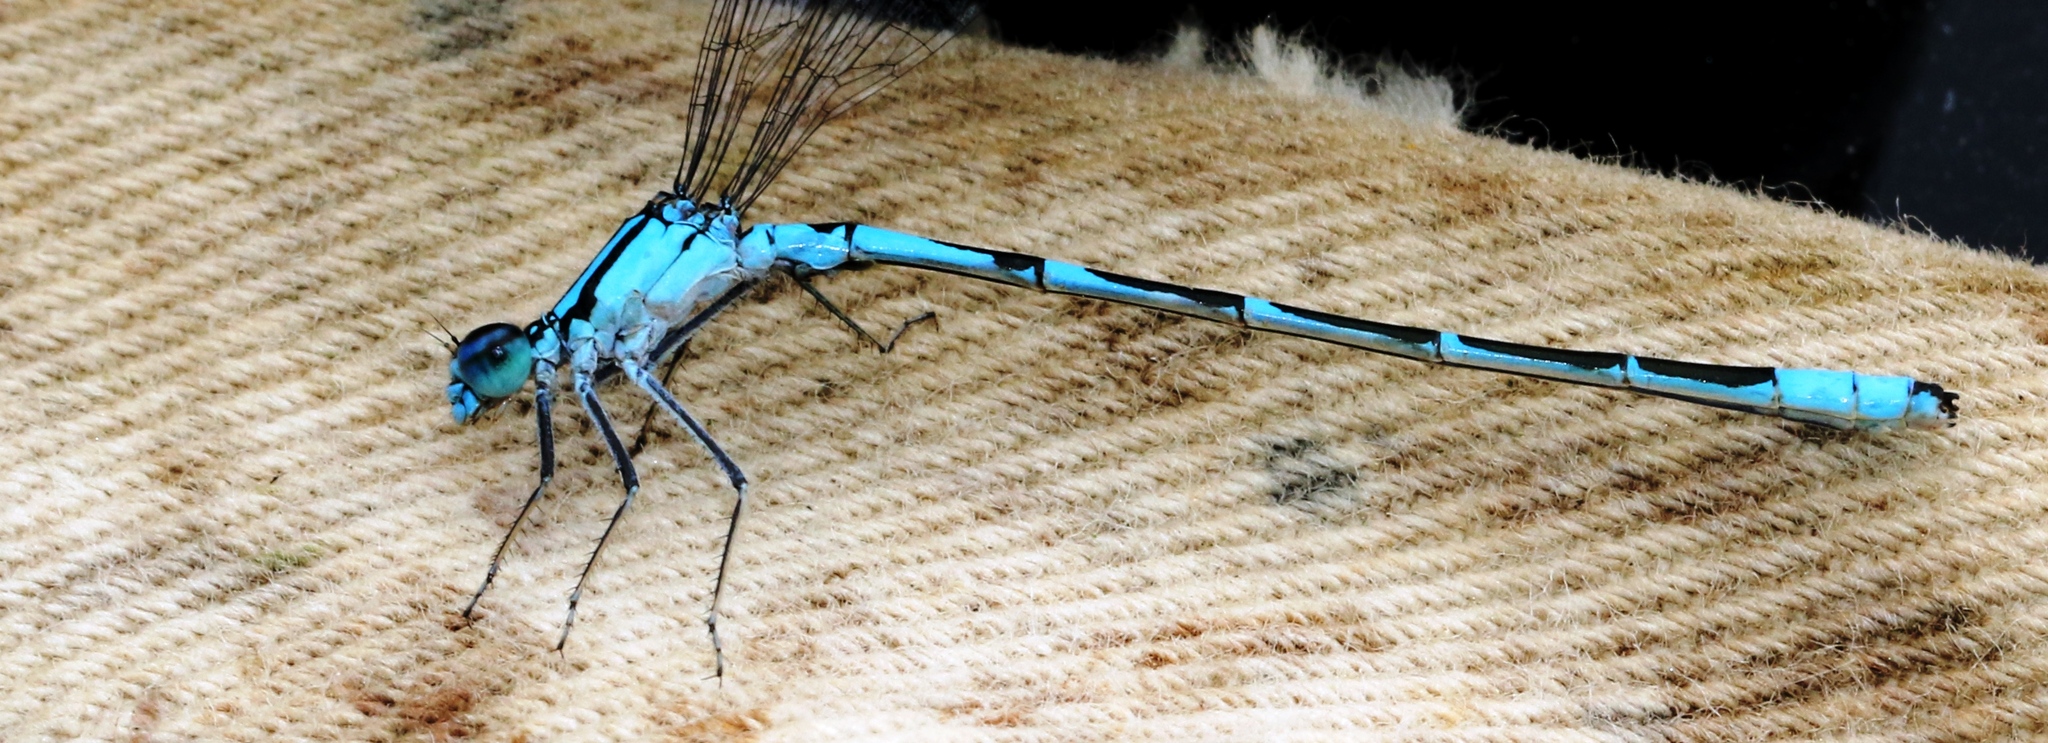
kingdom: Animalia
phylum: Arthropoda
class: Insecta
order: Odonata
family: Coenagrionidae
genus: Enallagma
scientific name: Enallagma ebrium
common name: Marsh bluet
